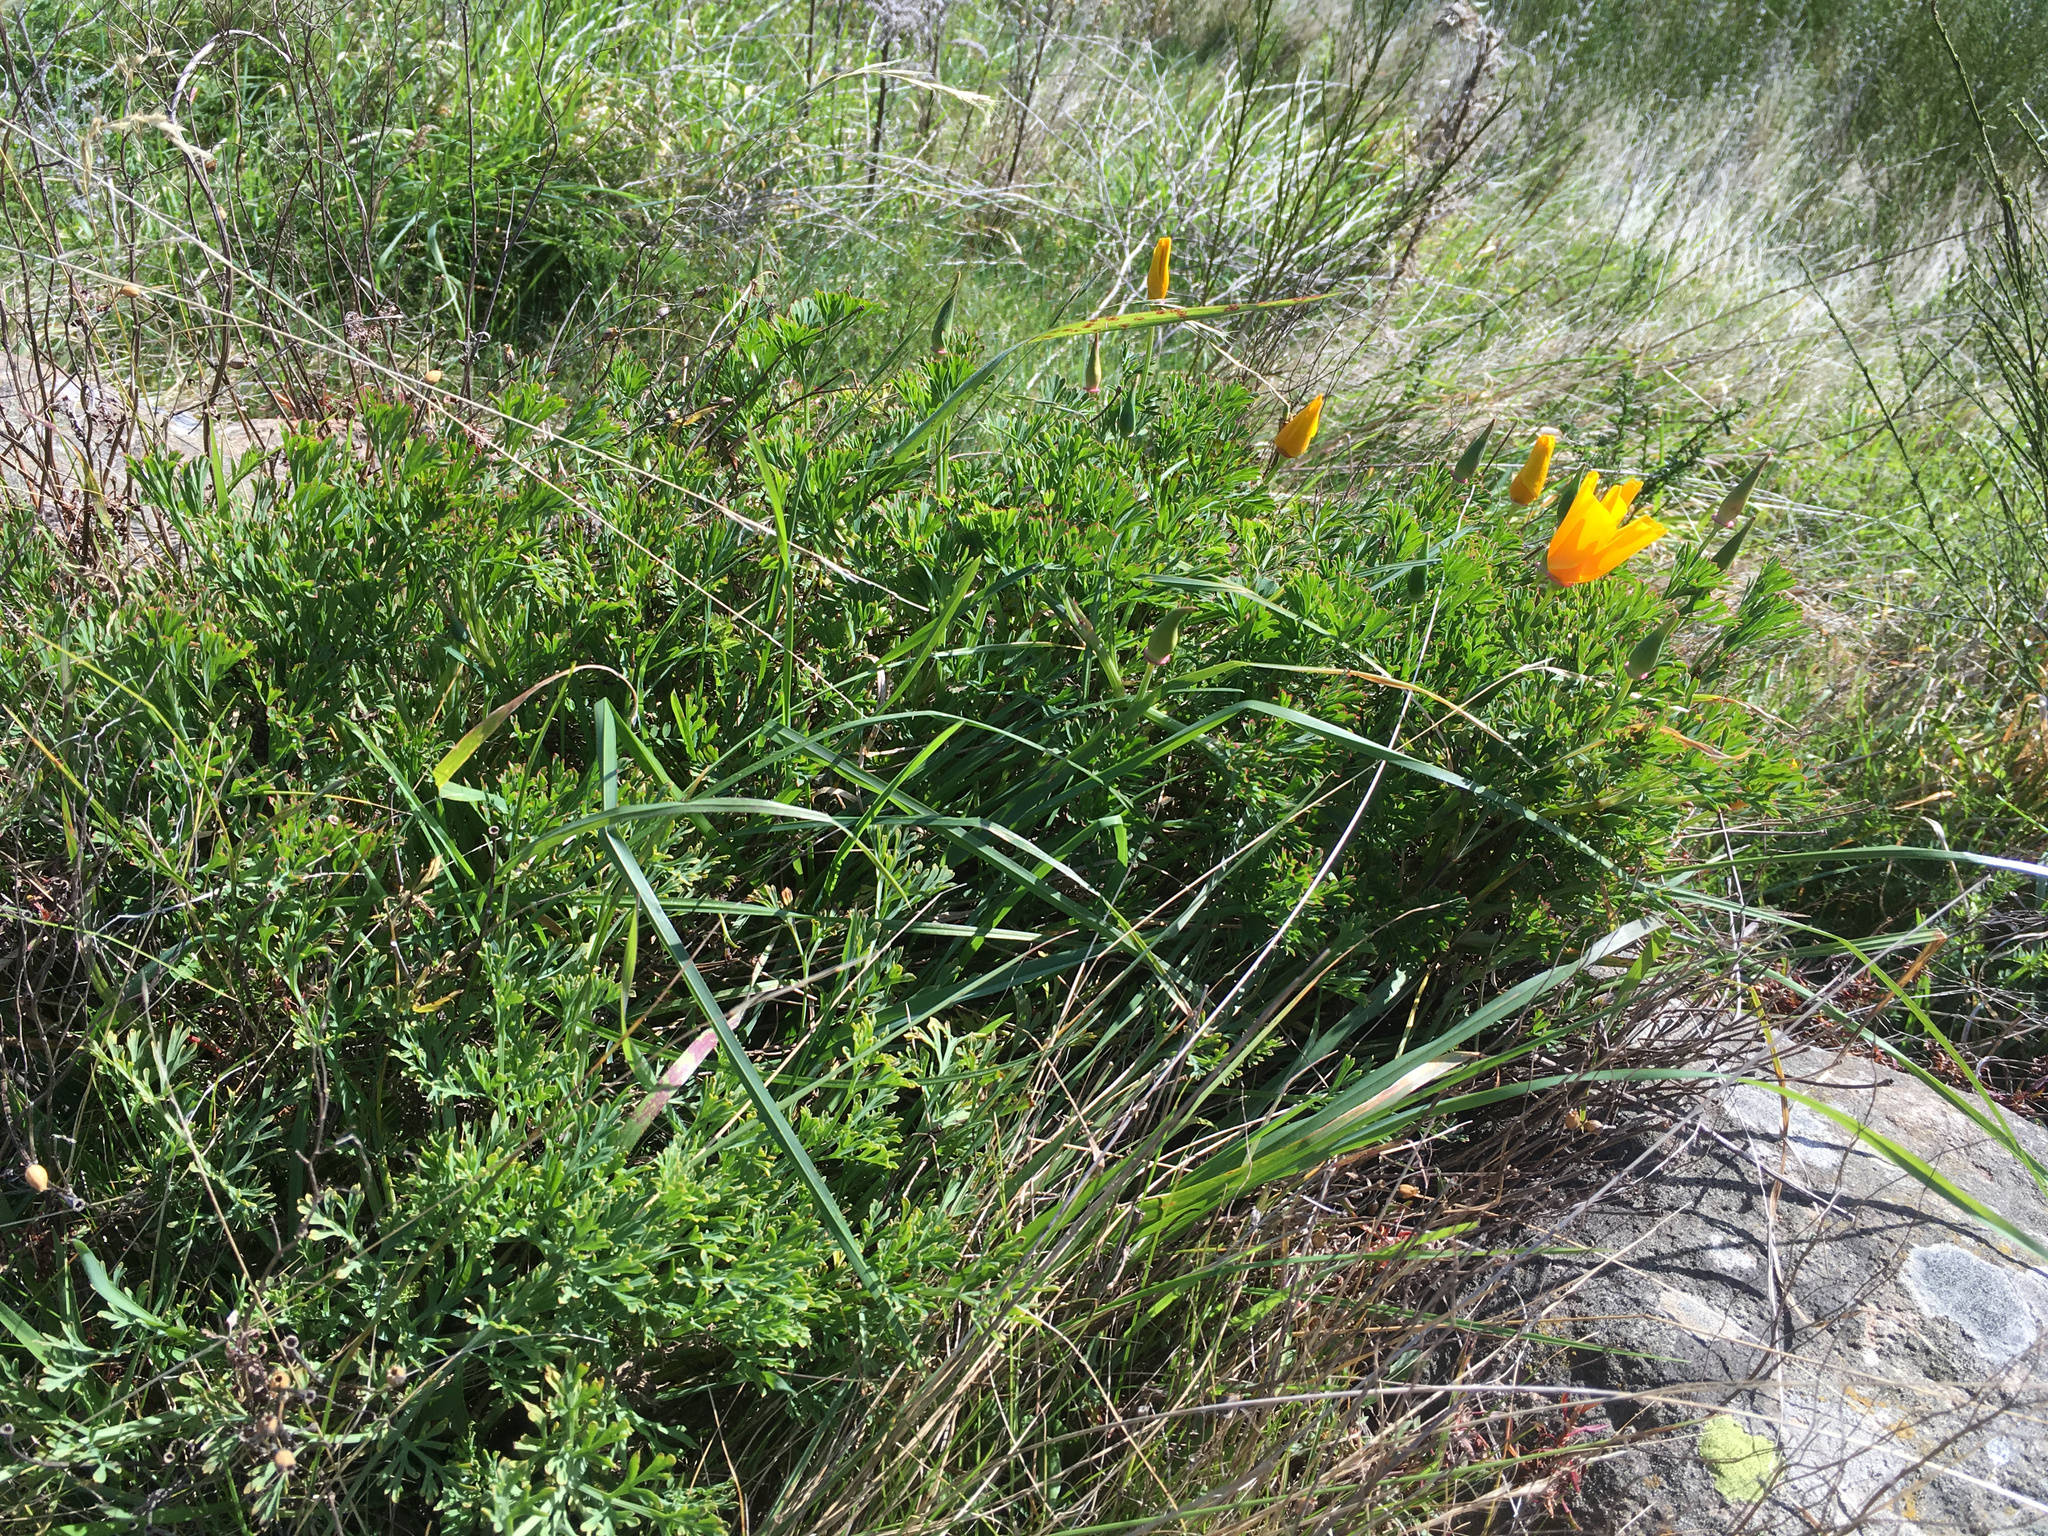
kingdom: Plantae
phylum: Tracheophyta
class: Magnoliopsida
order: Ranunculales
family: Papaveraceae
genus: Eschscholzia
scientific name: Eschscholzia californica
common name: California poppy
